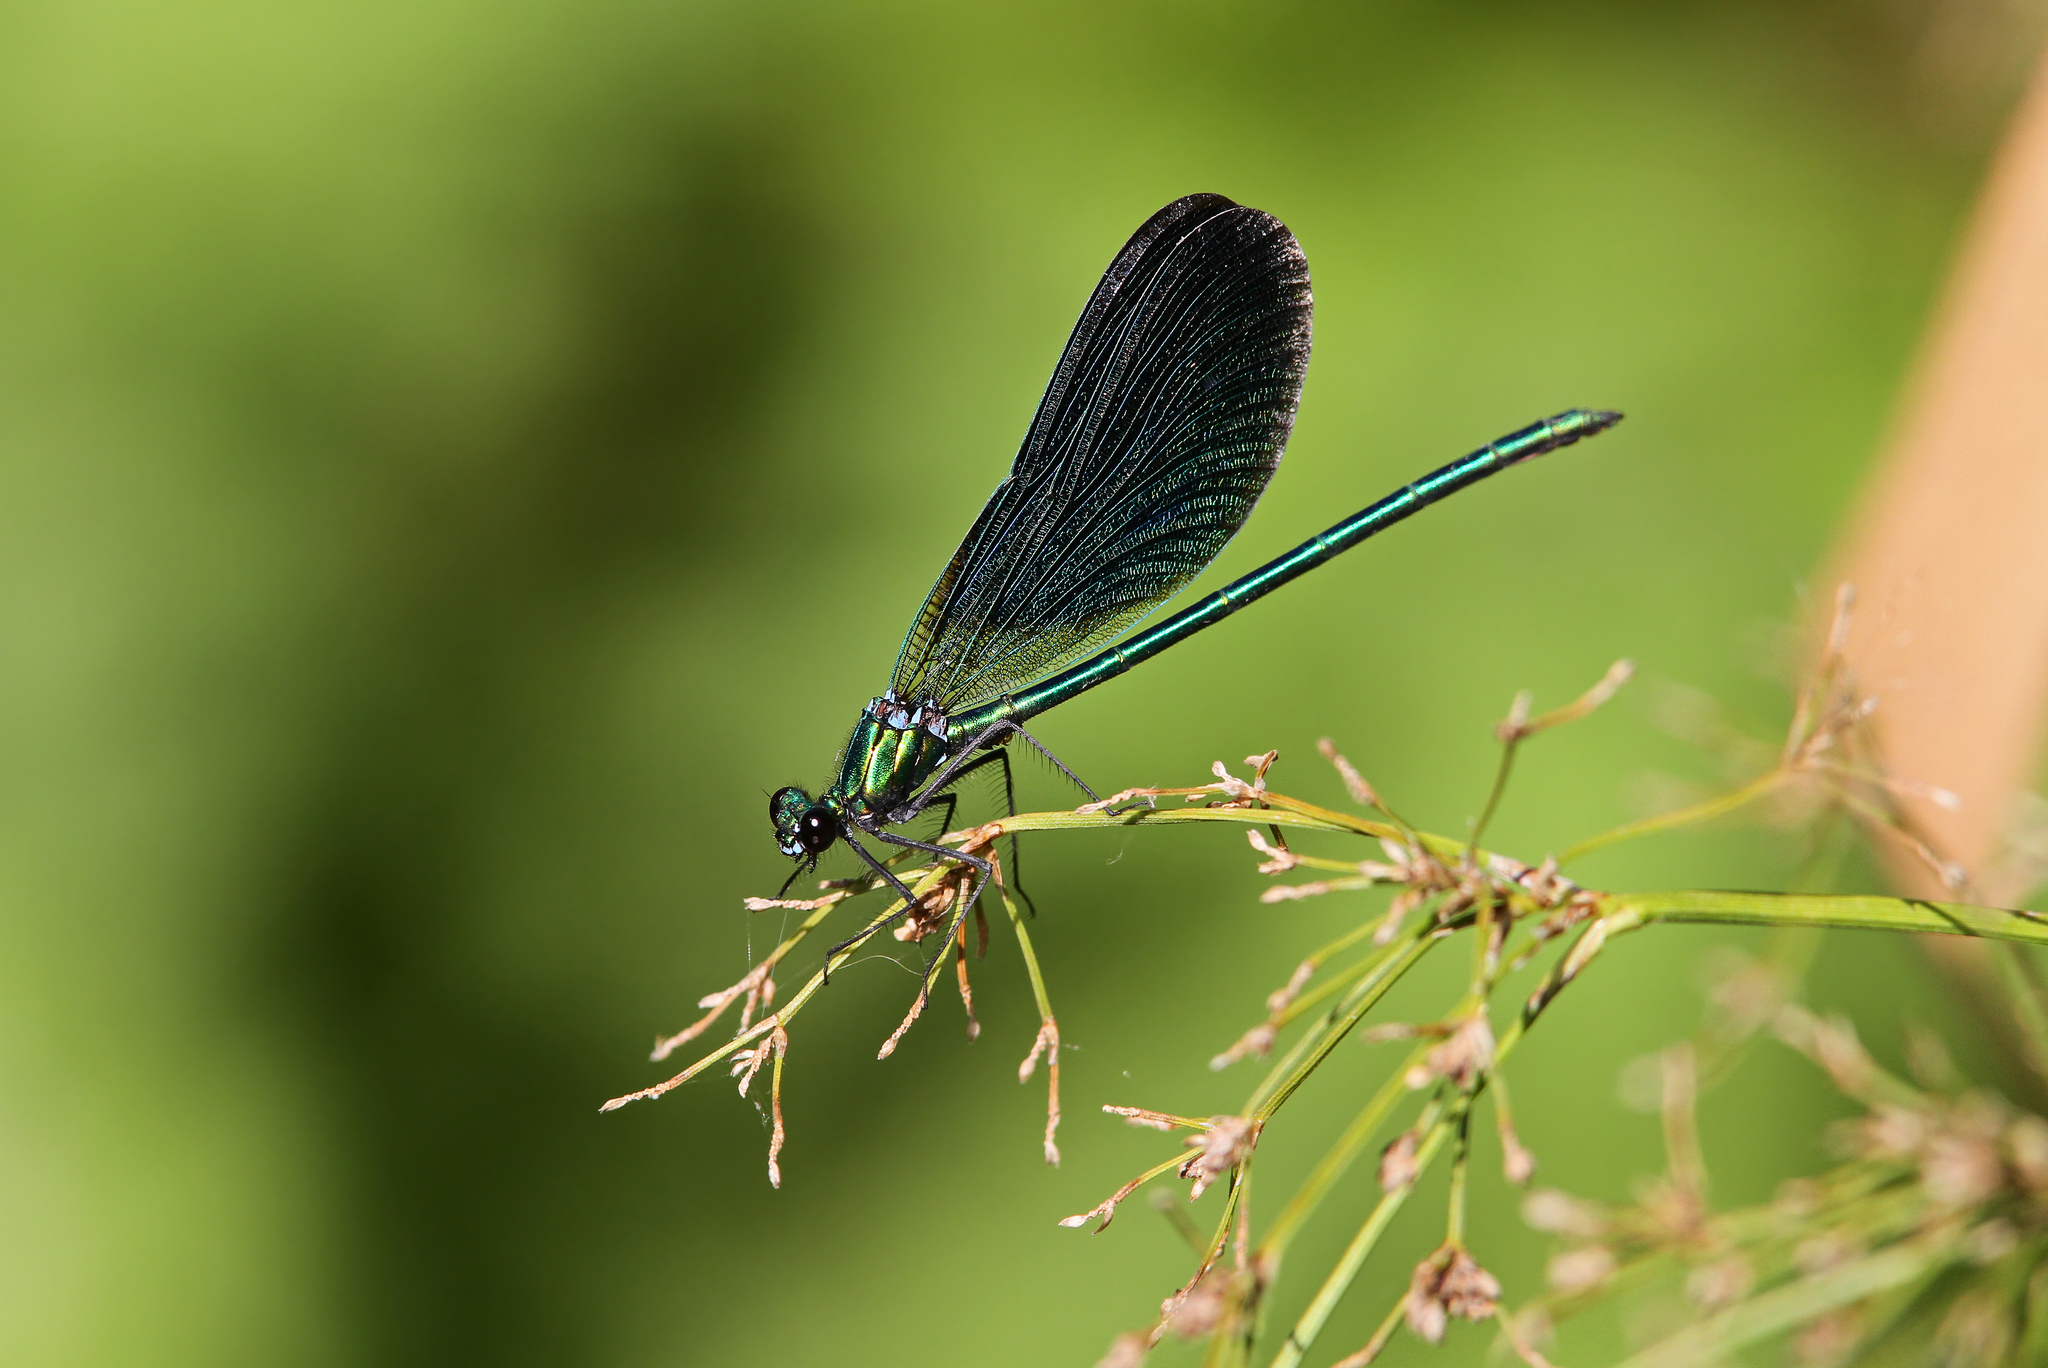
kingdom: Animalia
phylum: Arthropoda
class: Insecta
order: Odonata
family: Calopterygidae
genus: Calopteryx
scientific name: Calopteryx virgo
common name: Beautiful demoiselle
